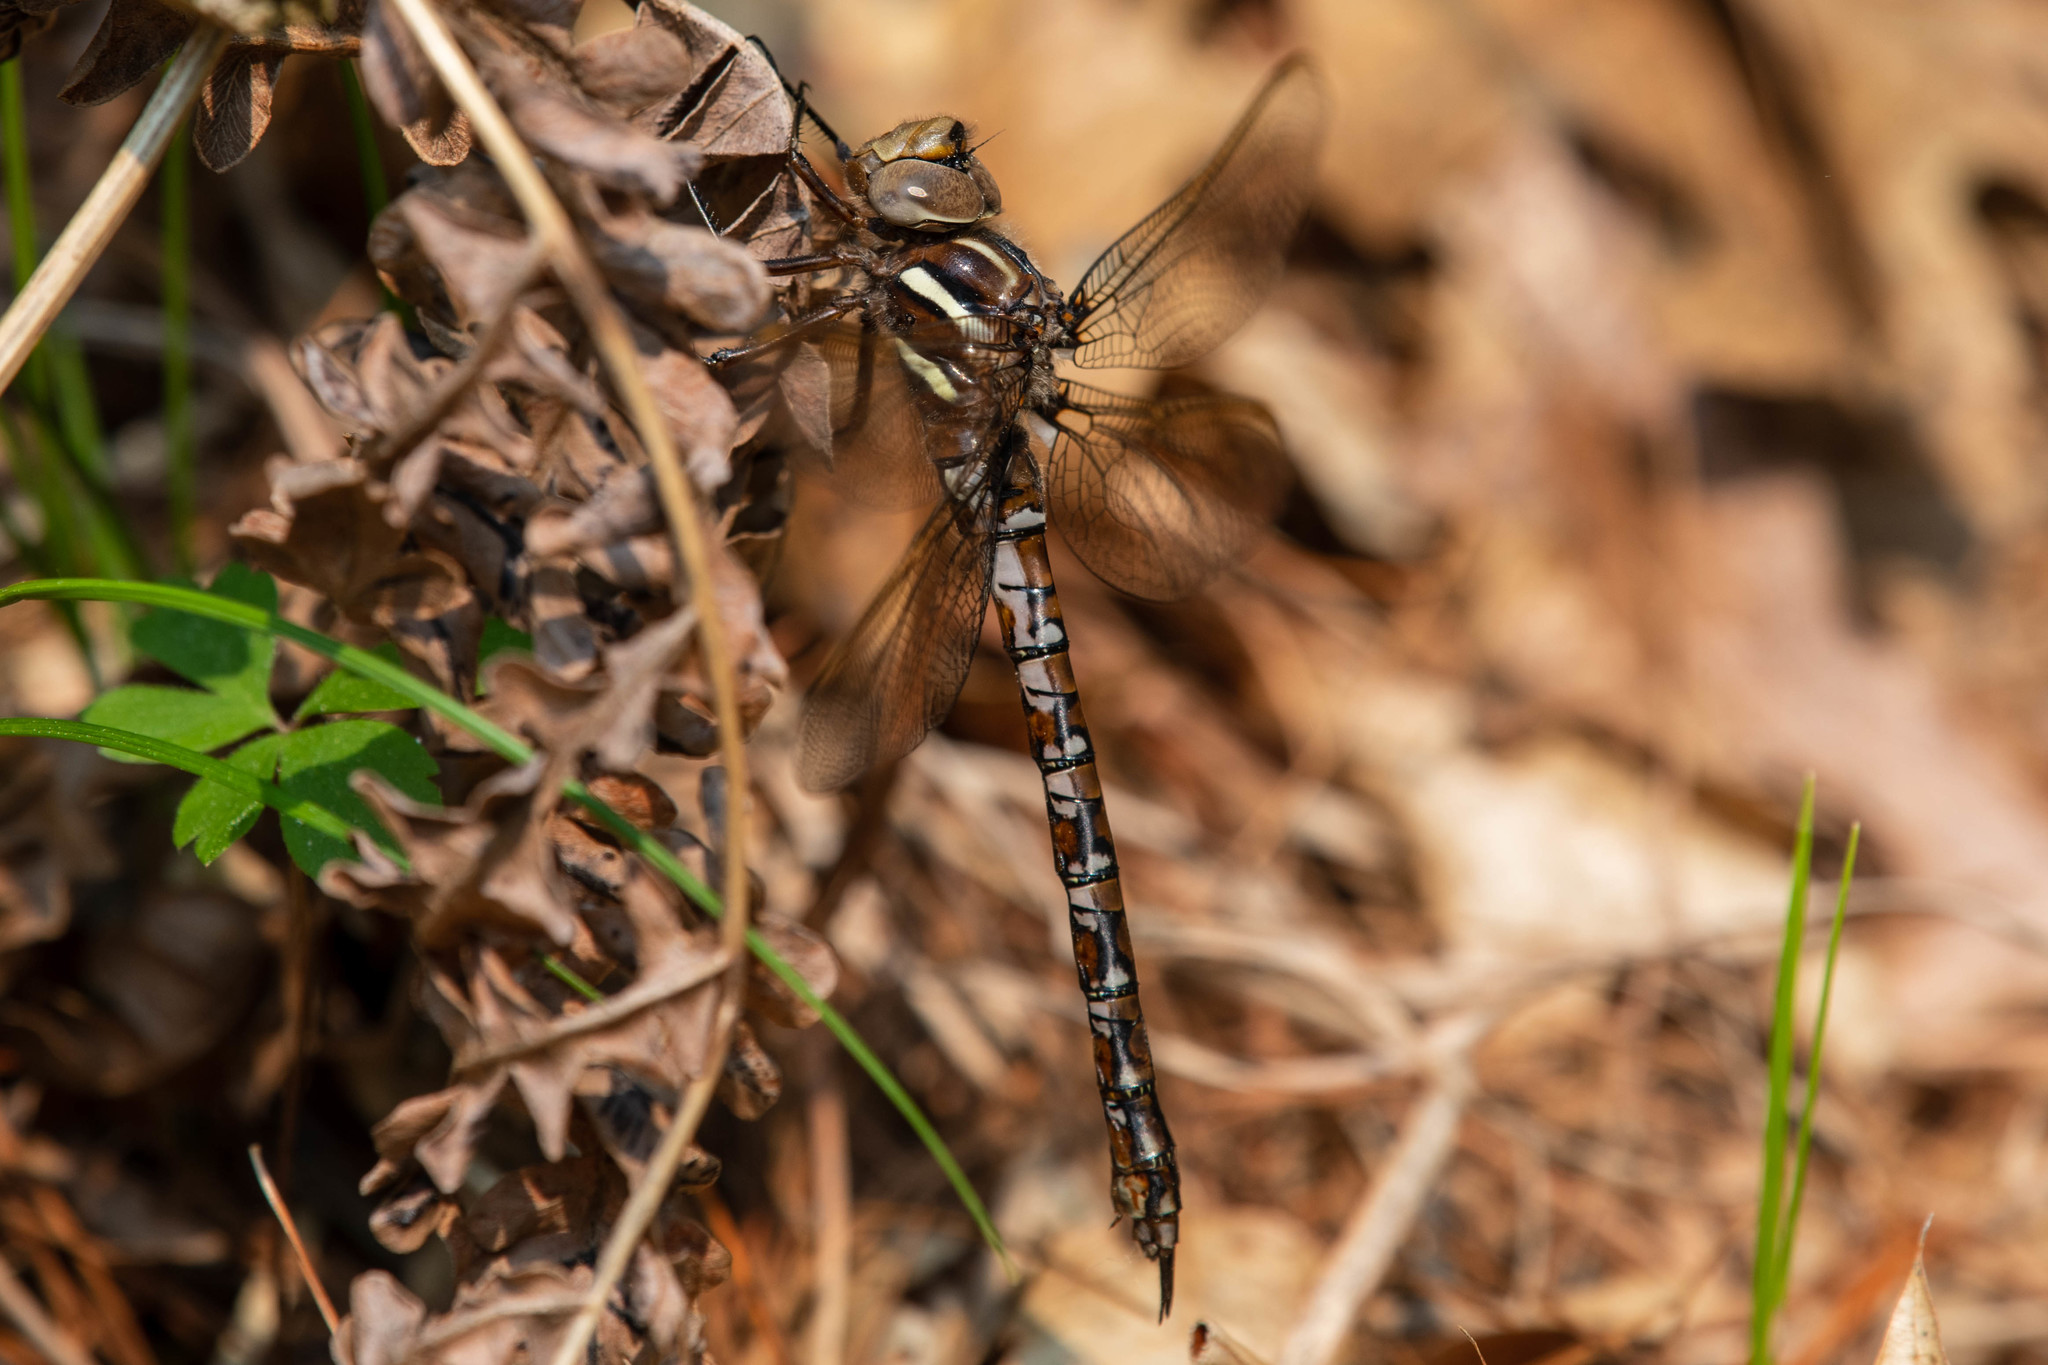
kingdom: Animalia
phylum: Arthropoda
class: Insecta
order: Odonata
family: Aeshnidae
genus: Basiaeschna
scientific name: Basiaeschna janata
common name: Springtime darner
